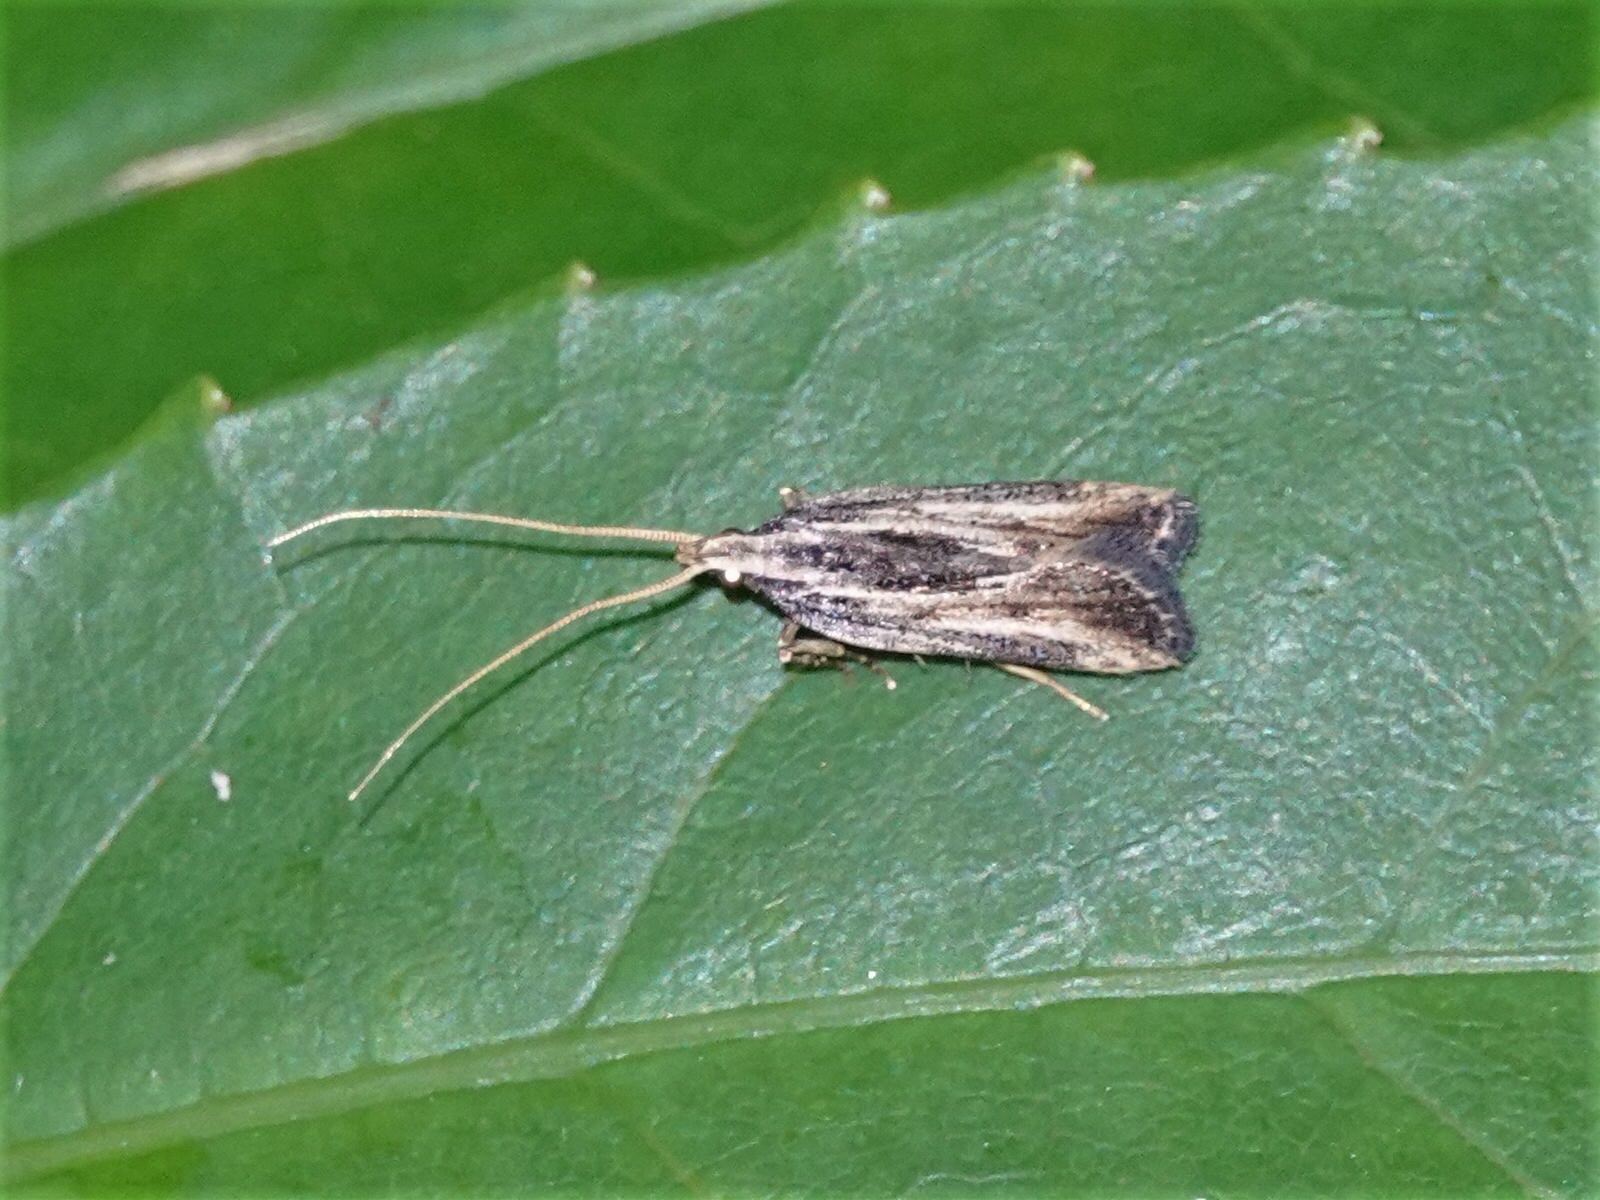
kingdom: Animalia
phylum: Arthropoda
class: Insecta
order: Lepidoptera
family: Lecithoceridae
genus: Sarisophora
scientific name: Sarisophora leucoscia
